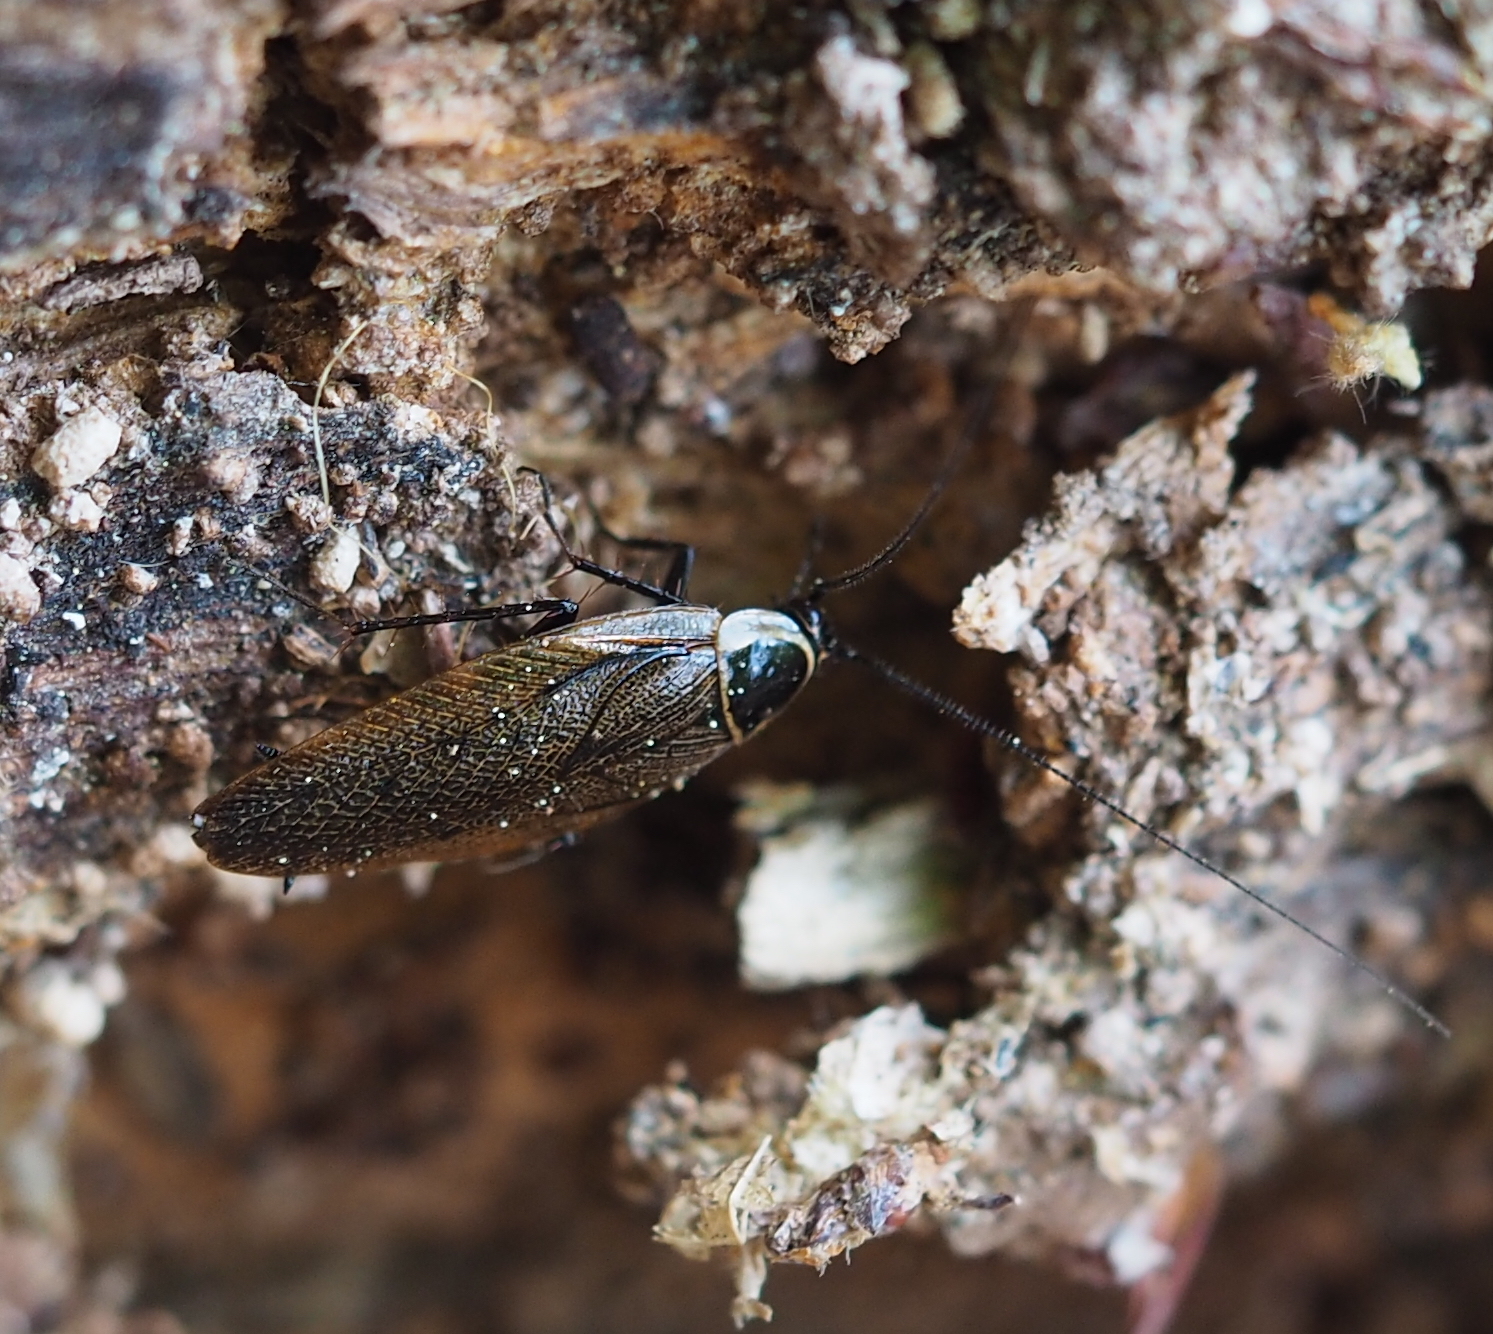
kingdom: Animalia
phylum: Arthropoda
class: Insecta
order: Blattodea
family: Ectobiidae
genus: Ectobius
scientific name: Ectobius sylvestris
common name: Forest cockroach
